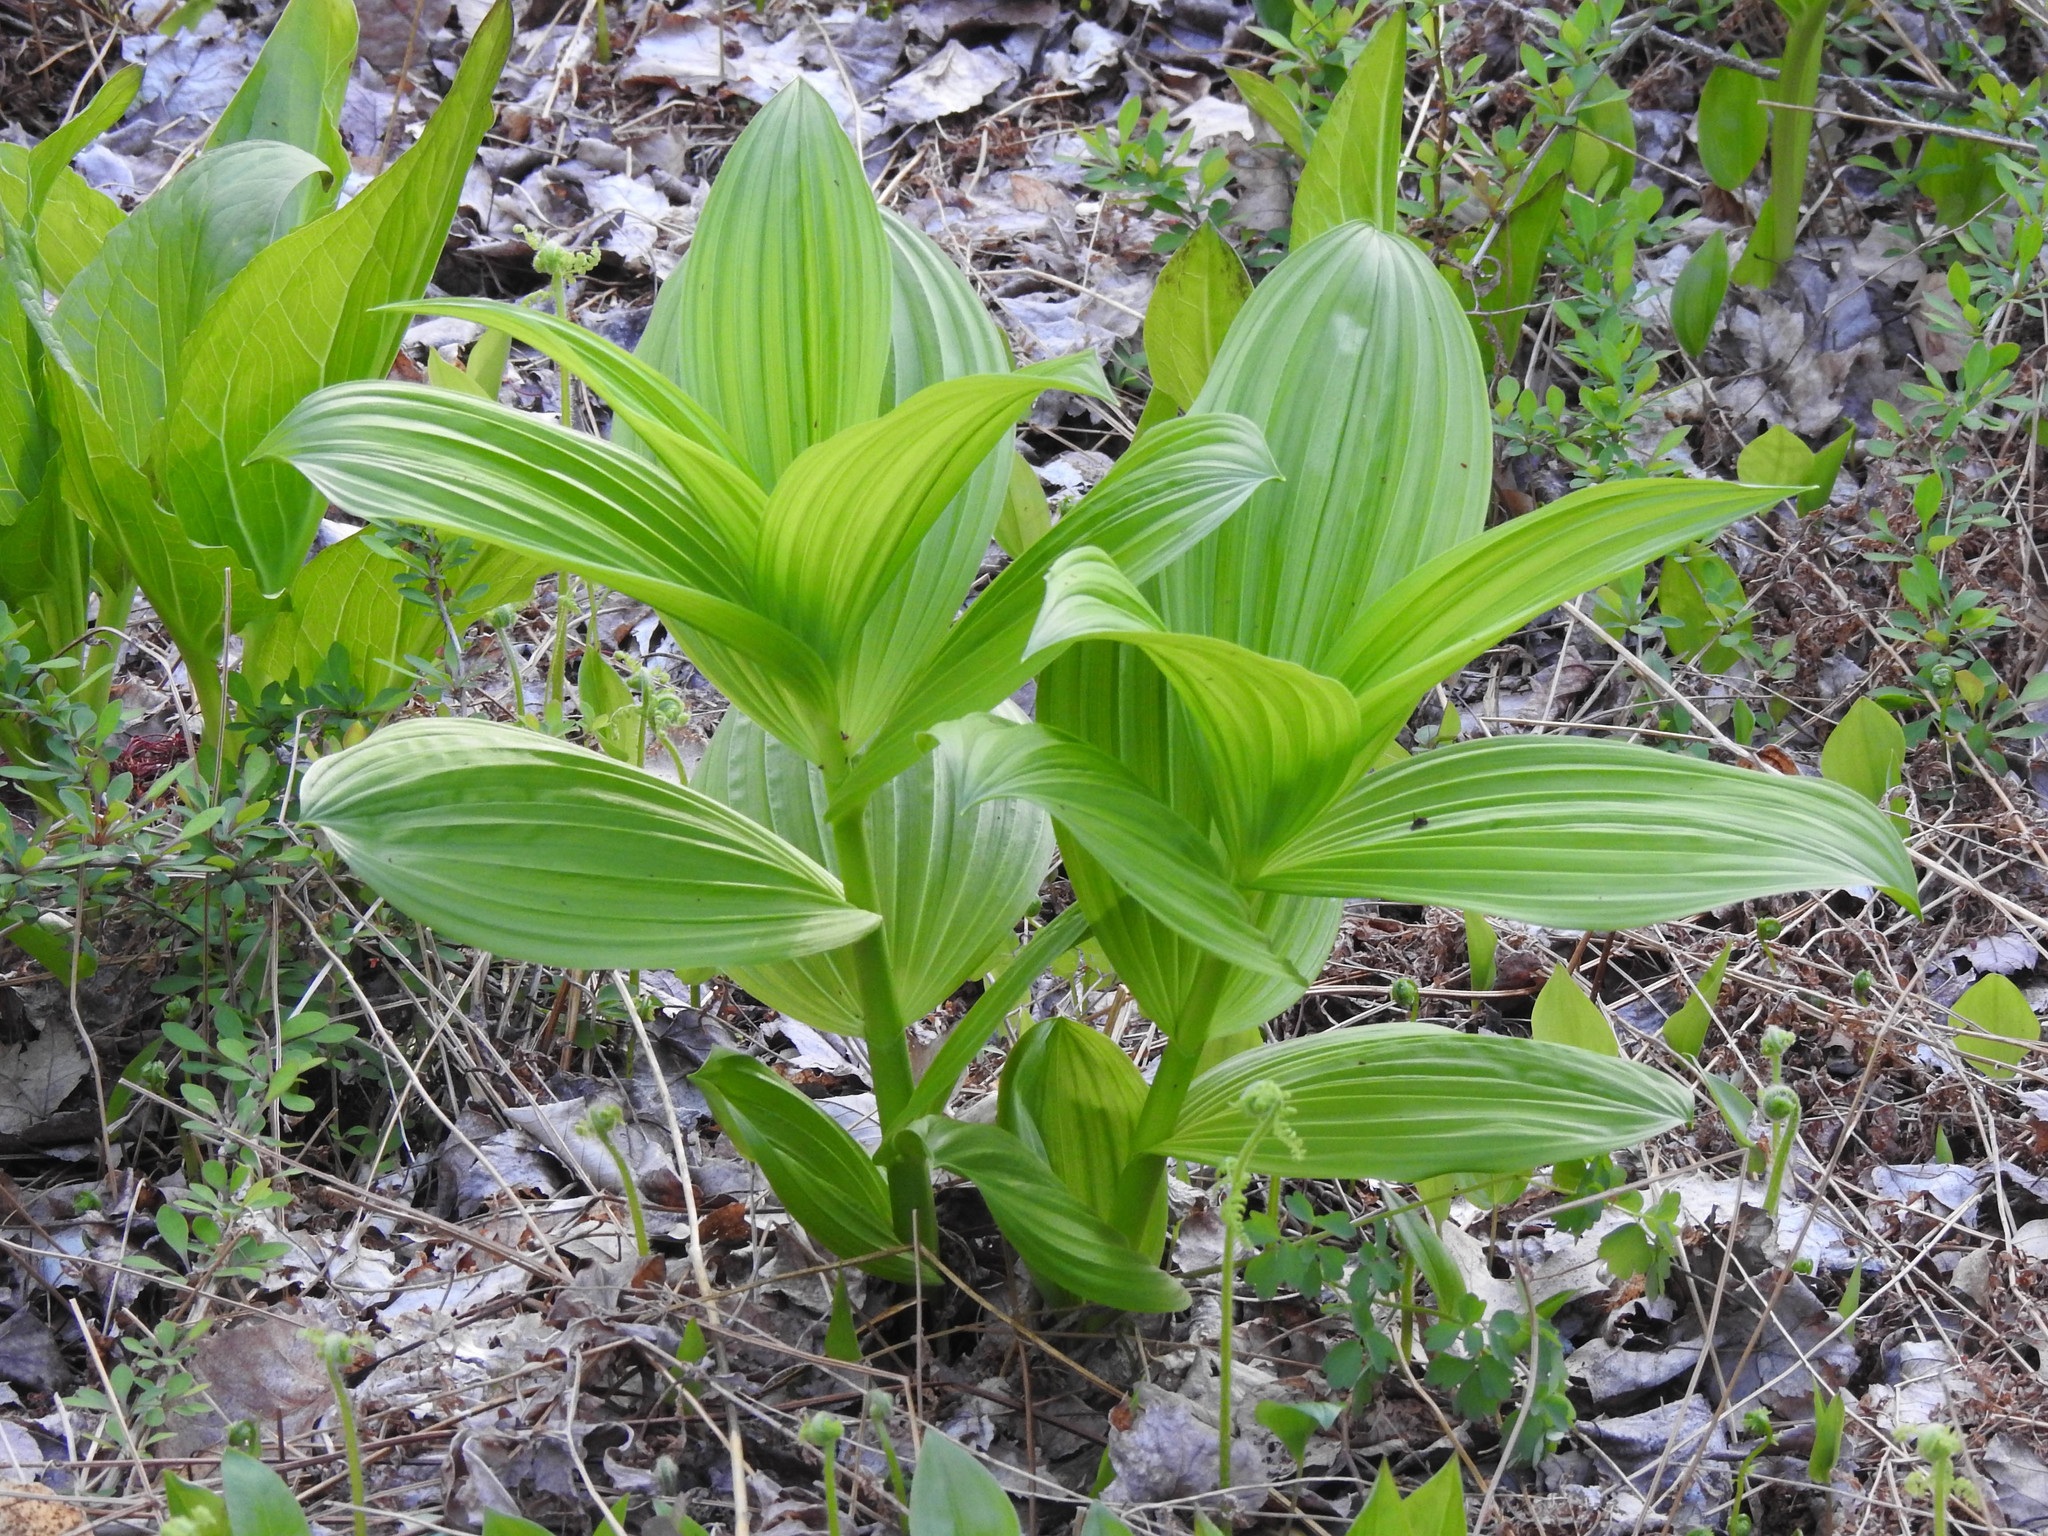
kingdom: Plantae
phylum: Tracheophyta
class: Liliopsida
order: Liliales
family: Melanthiaceae
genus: Veratrum
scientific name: Veratrum viride
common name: American false hellebore
